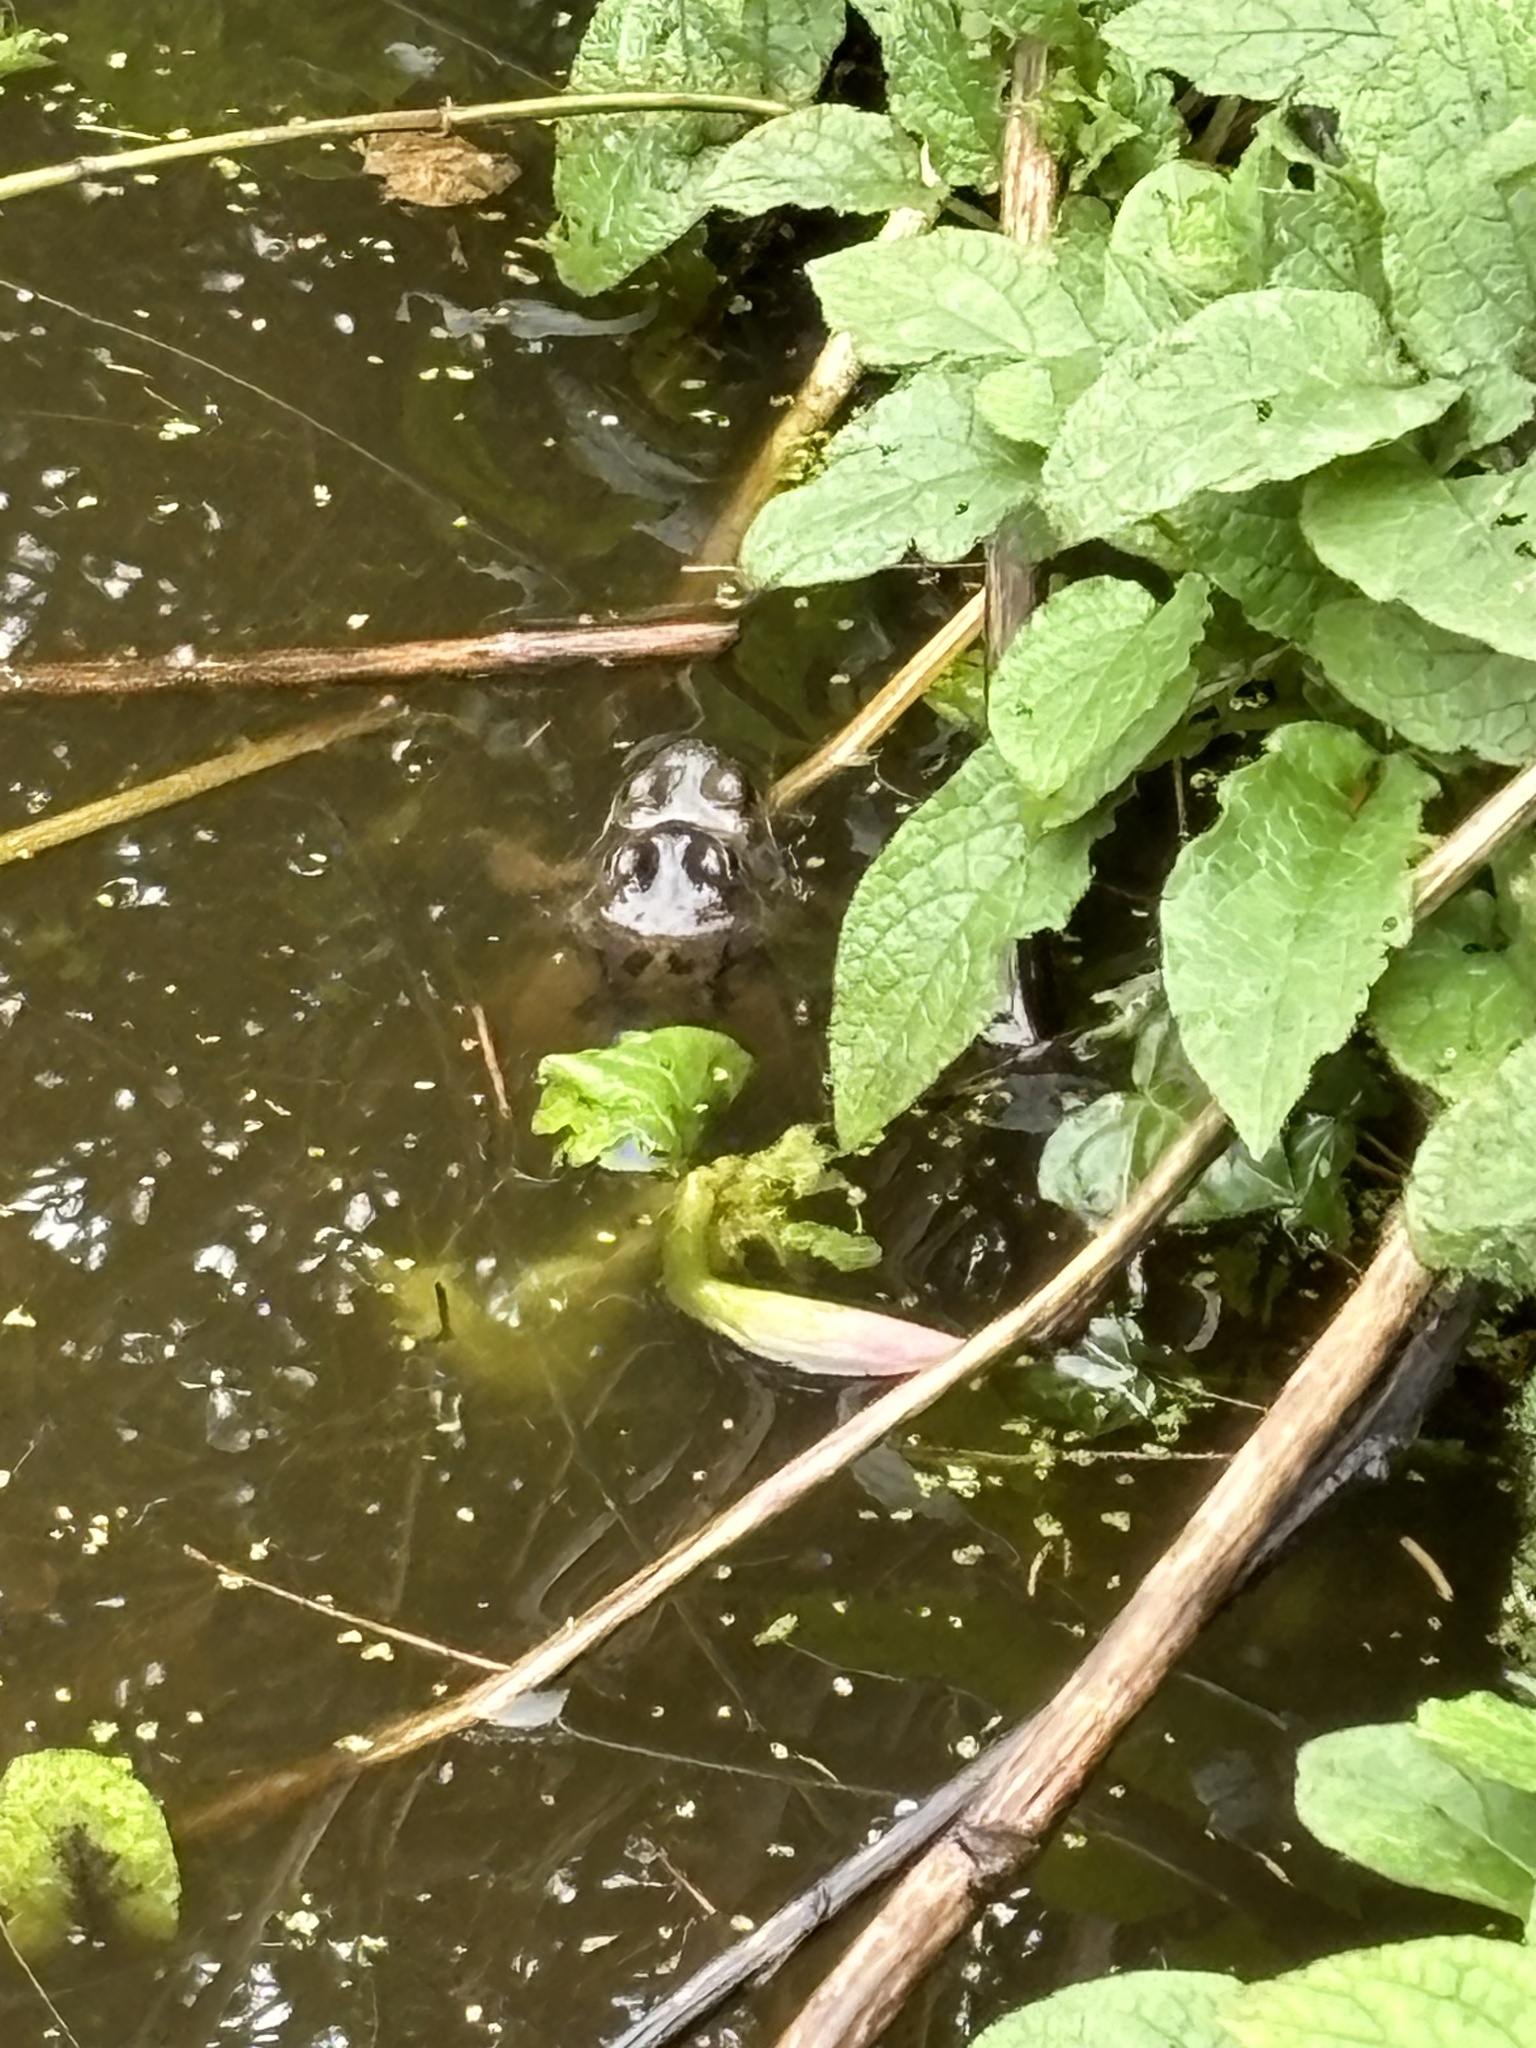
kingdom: Animalia
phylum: Chordata
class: Amphibia
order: Anura
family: Ranidae
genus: Rana
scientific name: Rana temporaria
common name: Common frog
